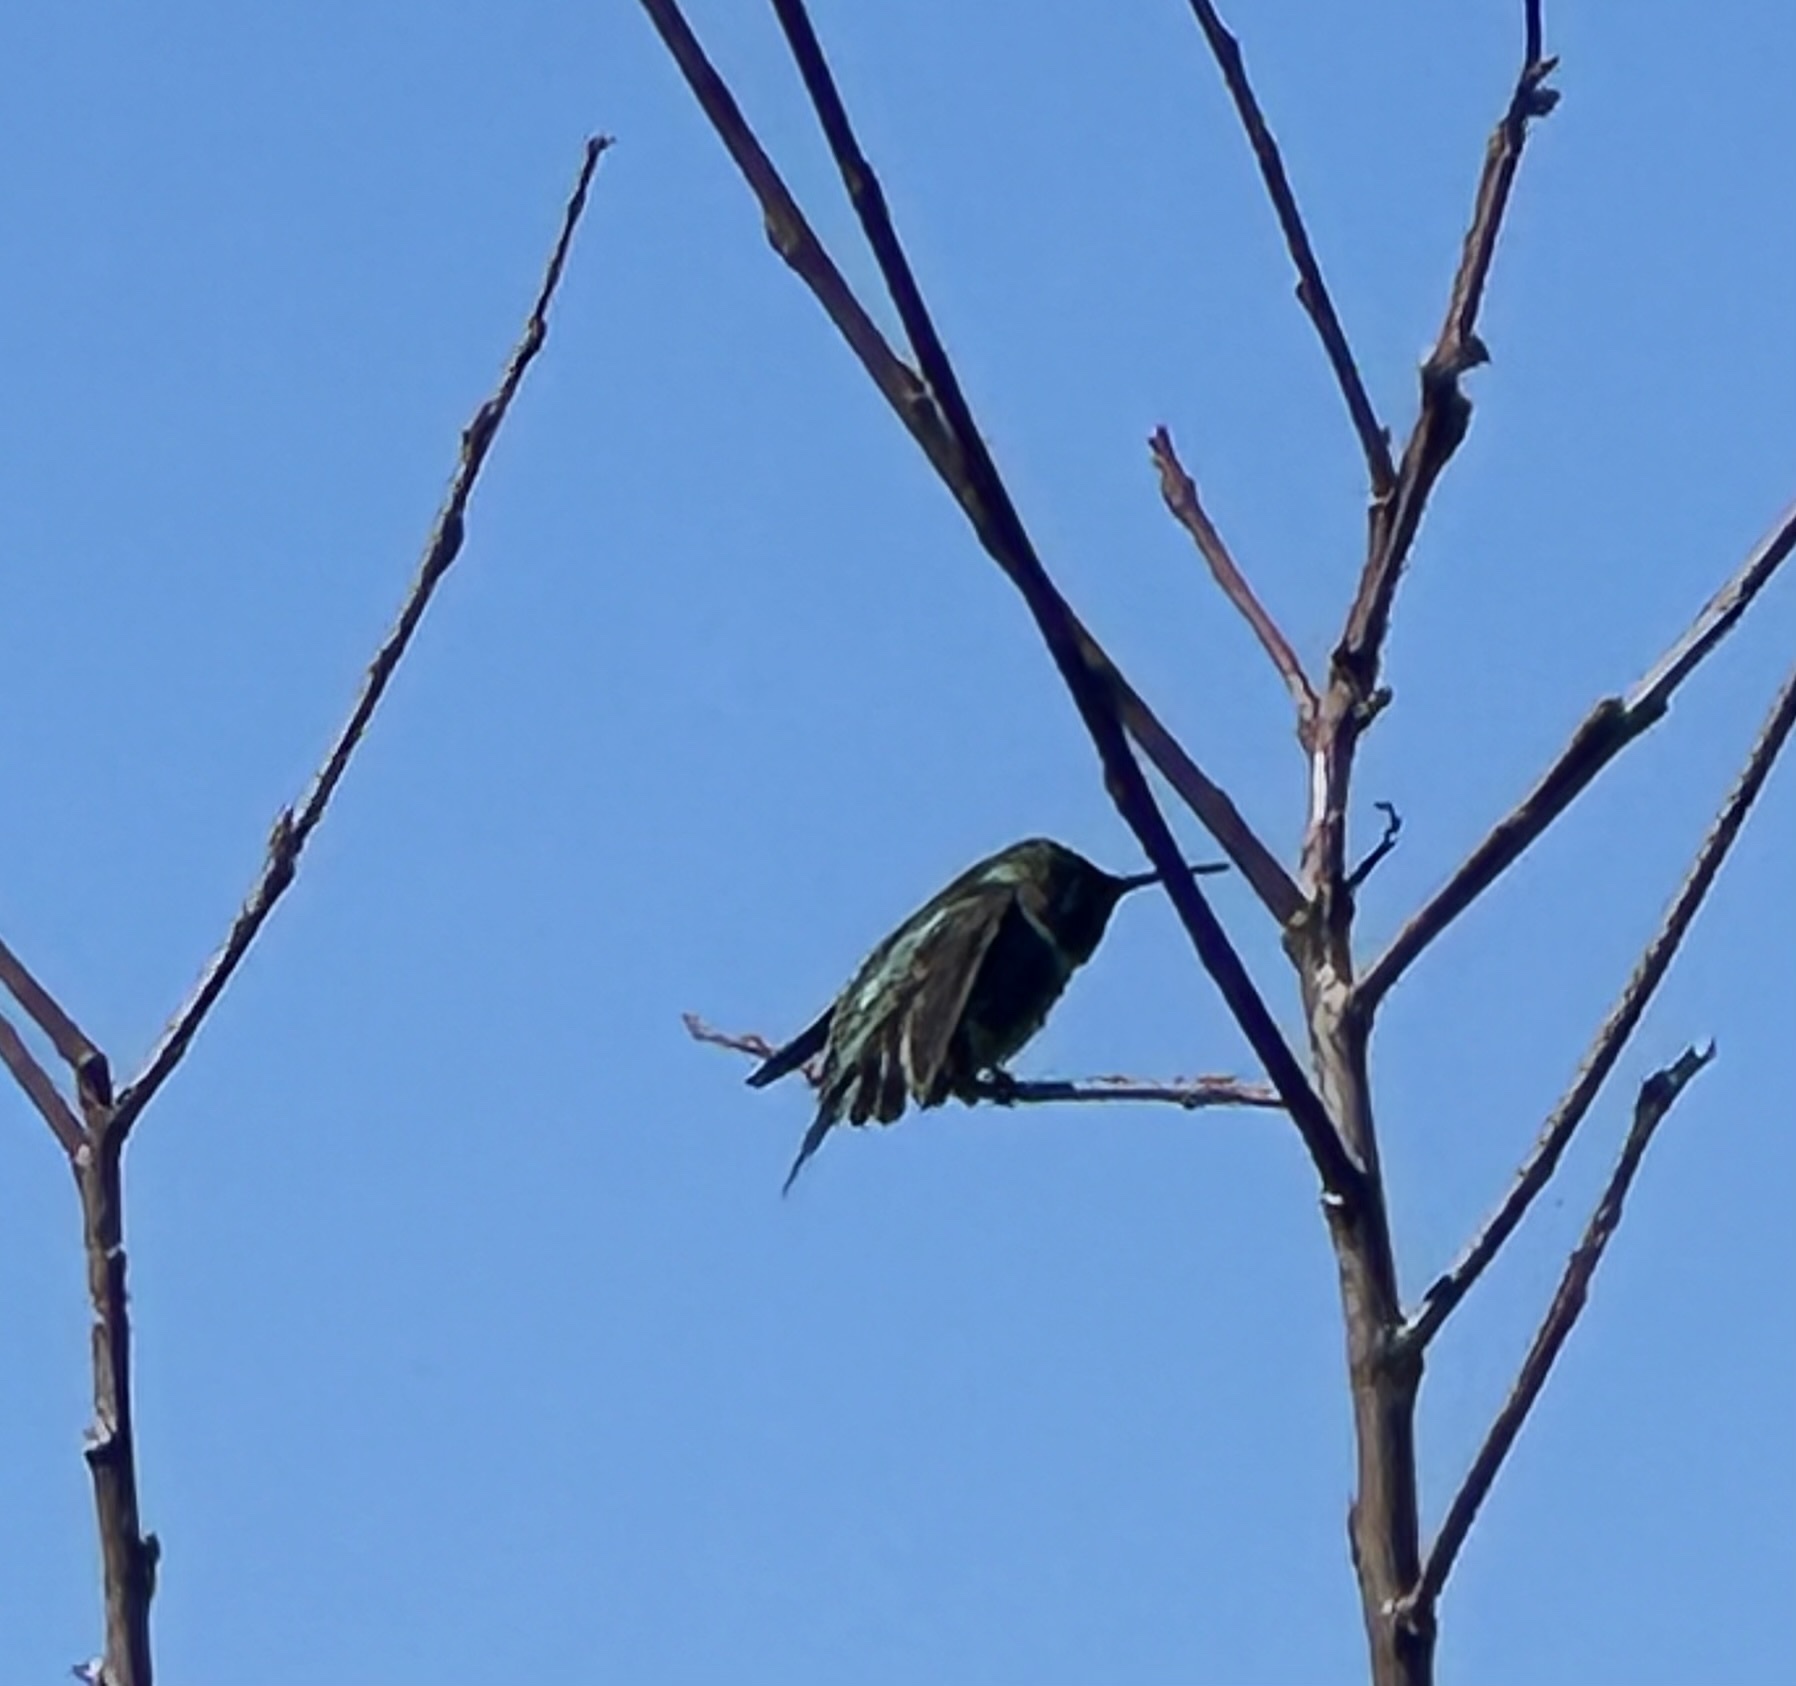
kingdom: Animalia
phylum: Chordata
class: Aves
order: Apodiformes
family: Trochilidae
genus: Calypte
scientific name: Calypte anna
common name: Anna's hummingbird
